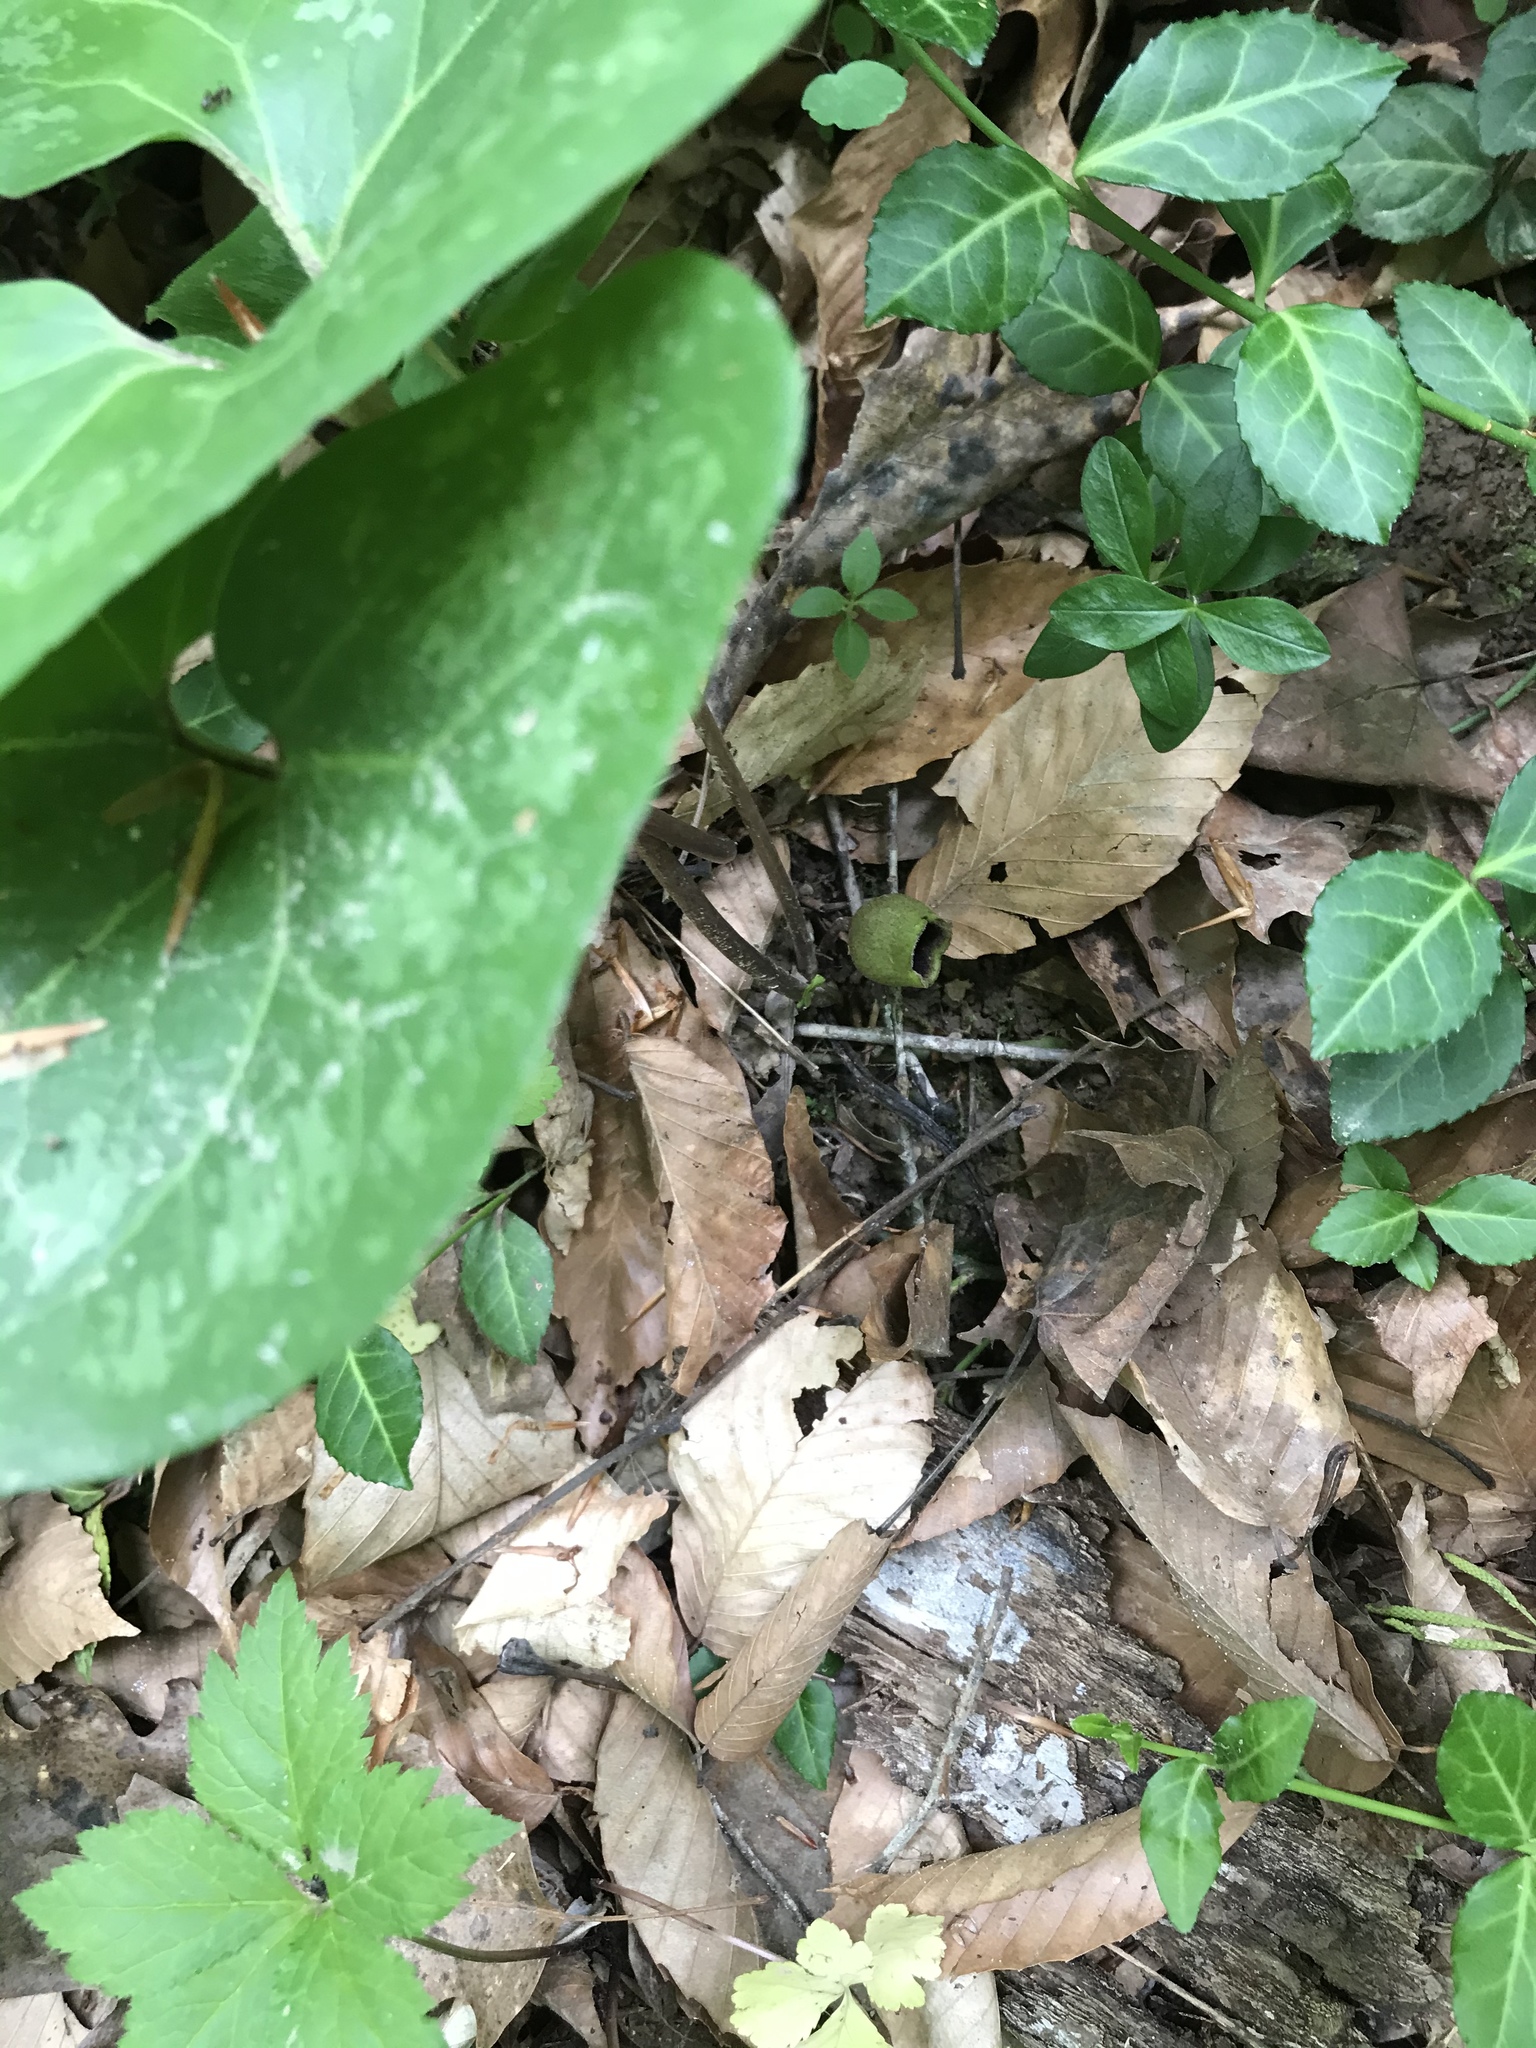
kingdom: Plantae
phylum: Tracheophyta
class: Magnoliopsida
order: Piperales
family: Aristolochiaceae
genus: Hexastylis
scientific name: Hexastylis arifolia
